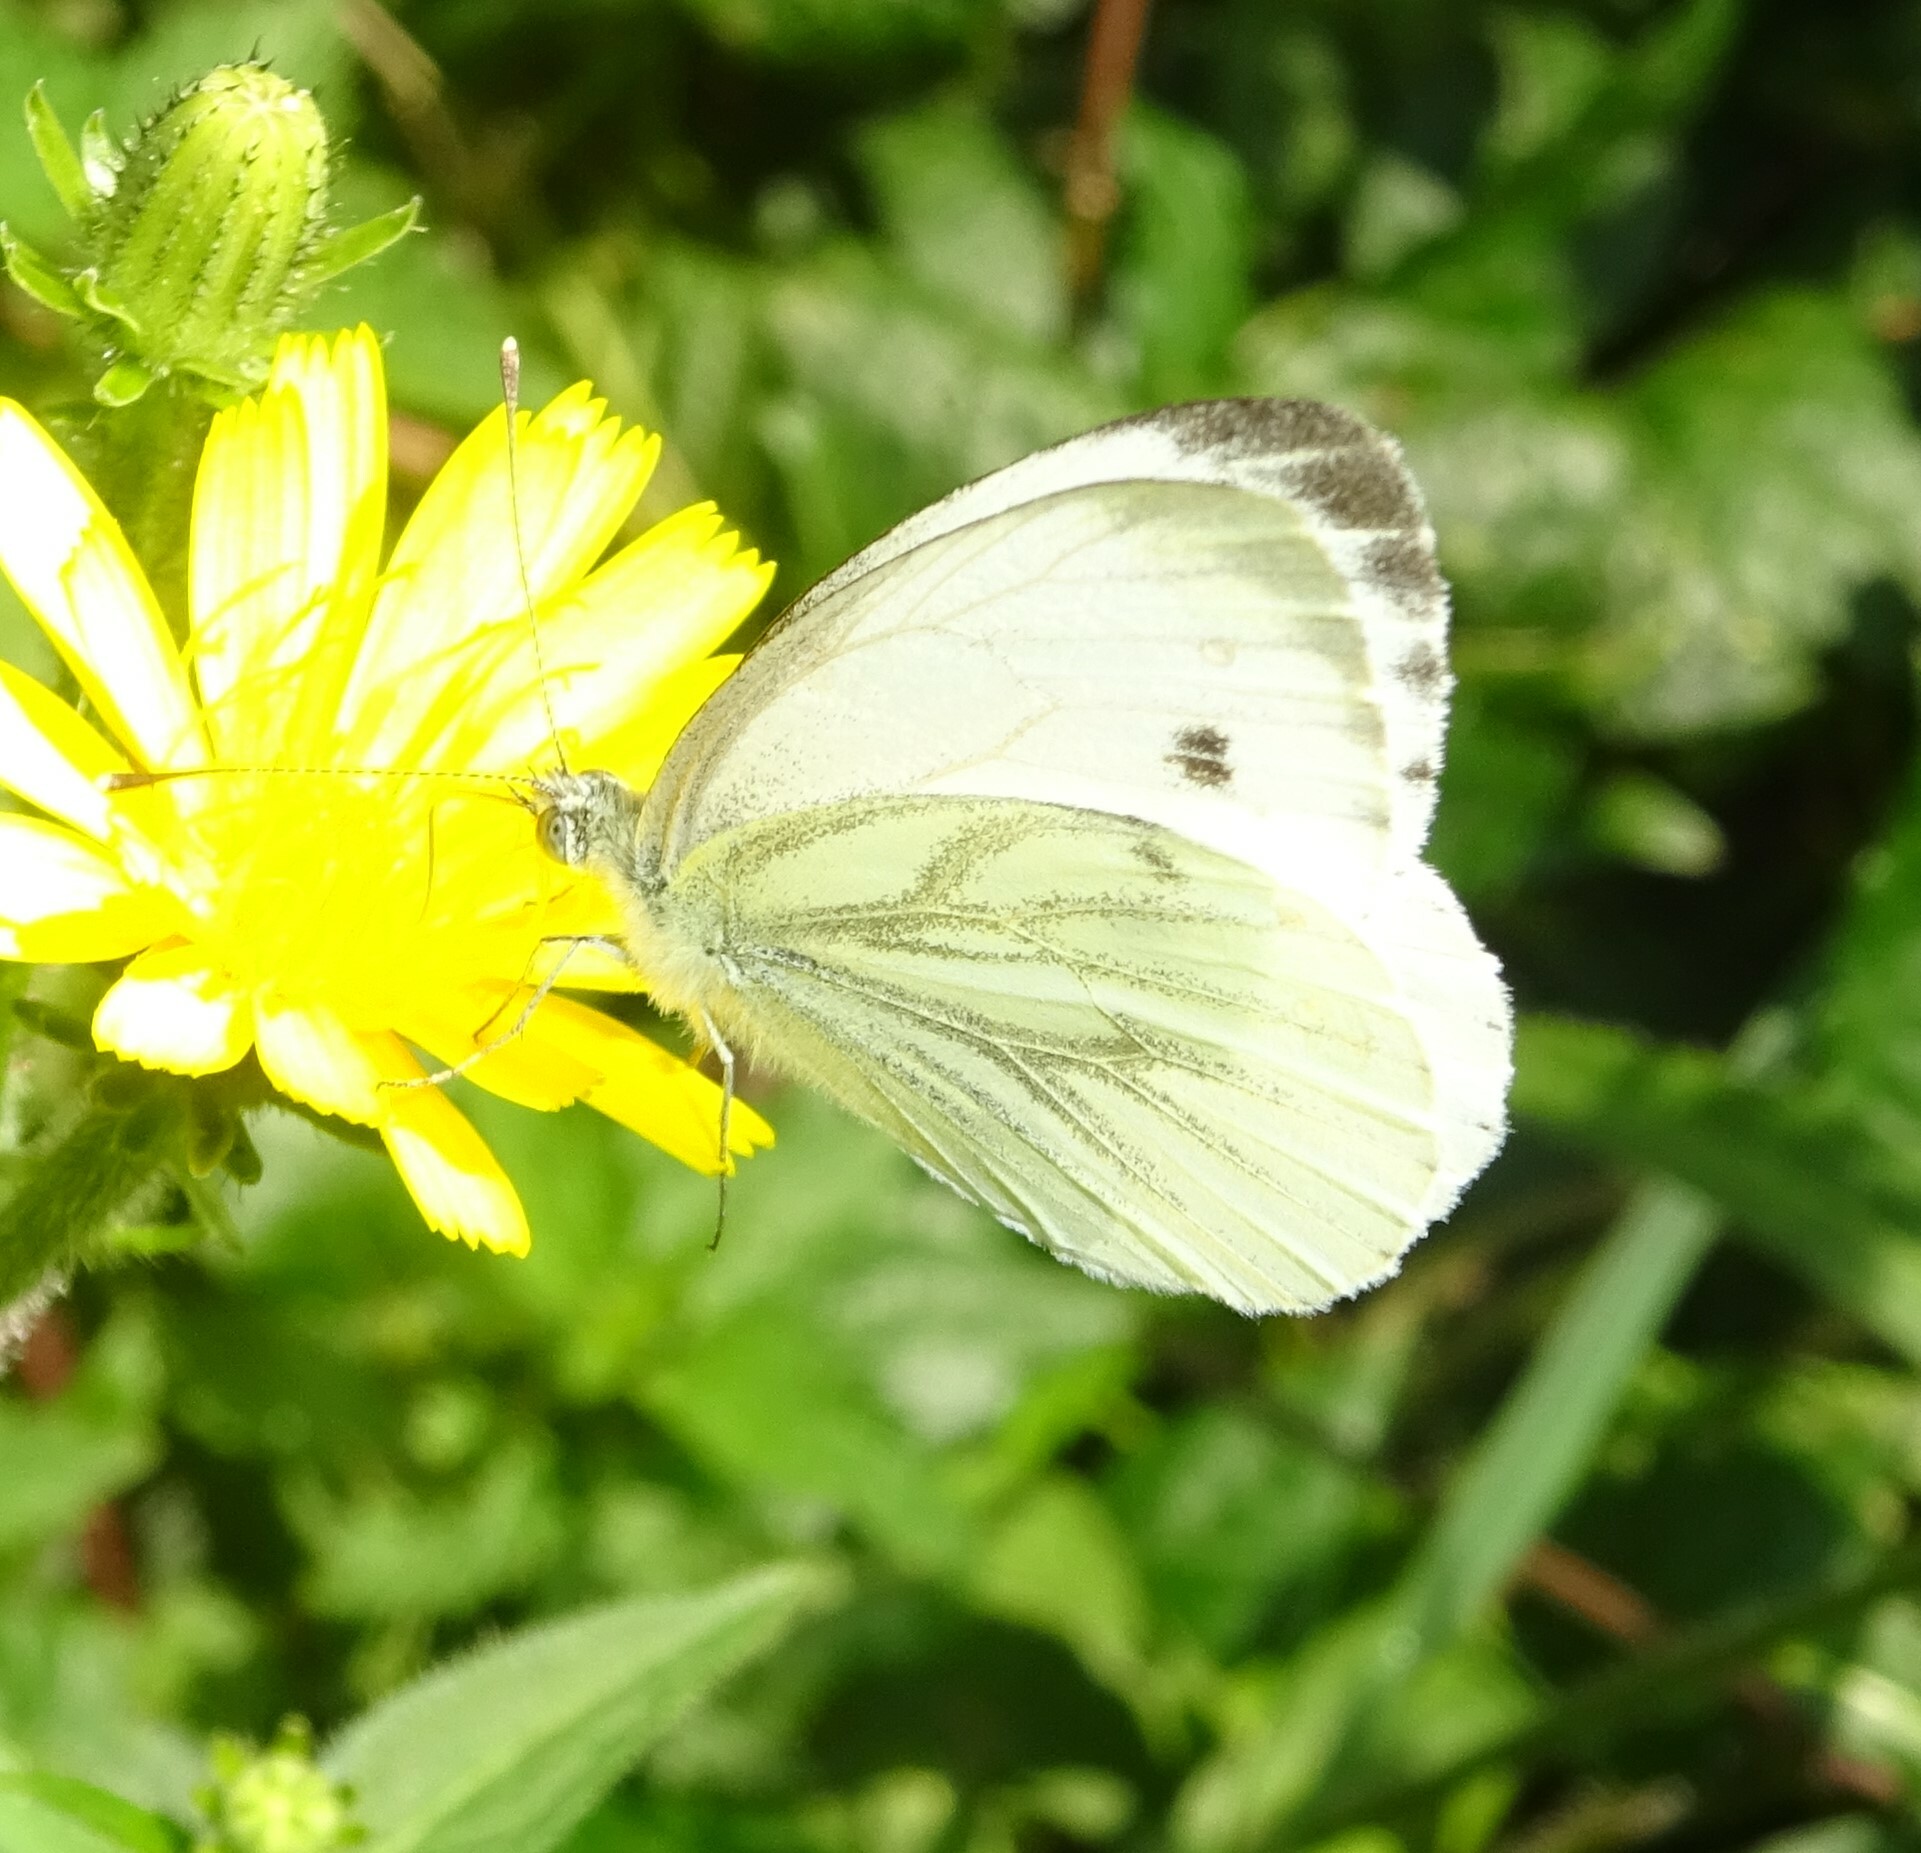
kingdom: Animalia
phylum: Arthropoda
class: Insecta
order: Lepidoptera
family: Pieridae
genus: Pieris
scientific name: Pieris napi
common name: Green-veined white
